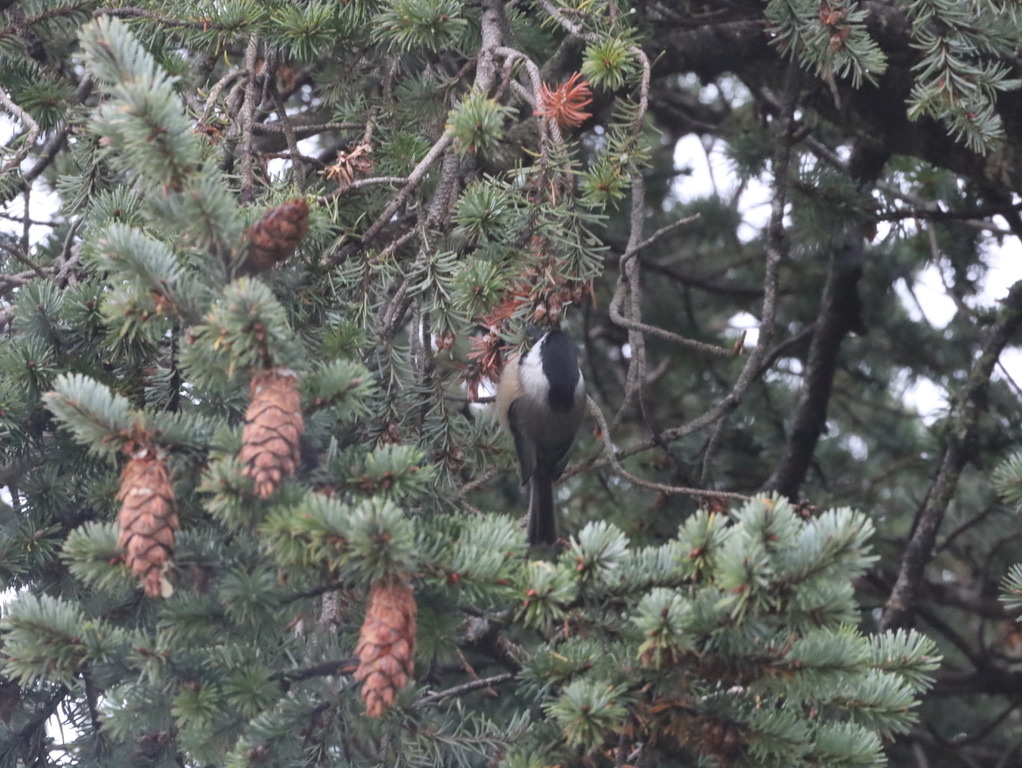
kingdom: Animalia
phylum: Chordata
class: Aves
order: Passeriformes
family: Paridae
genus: Poecile
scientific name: Poecile atricapillus
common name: Black-capped chickadee
